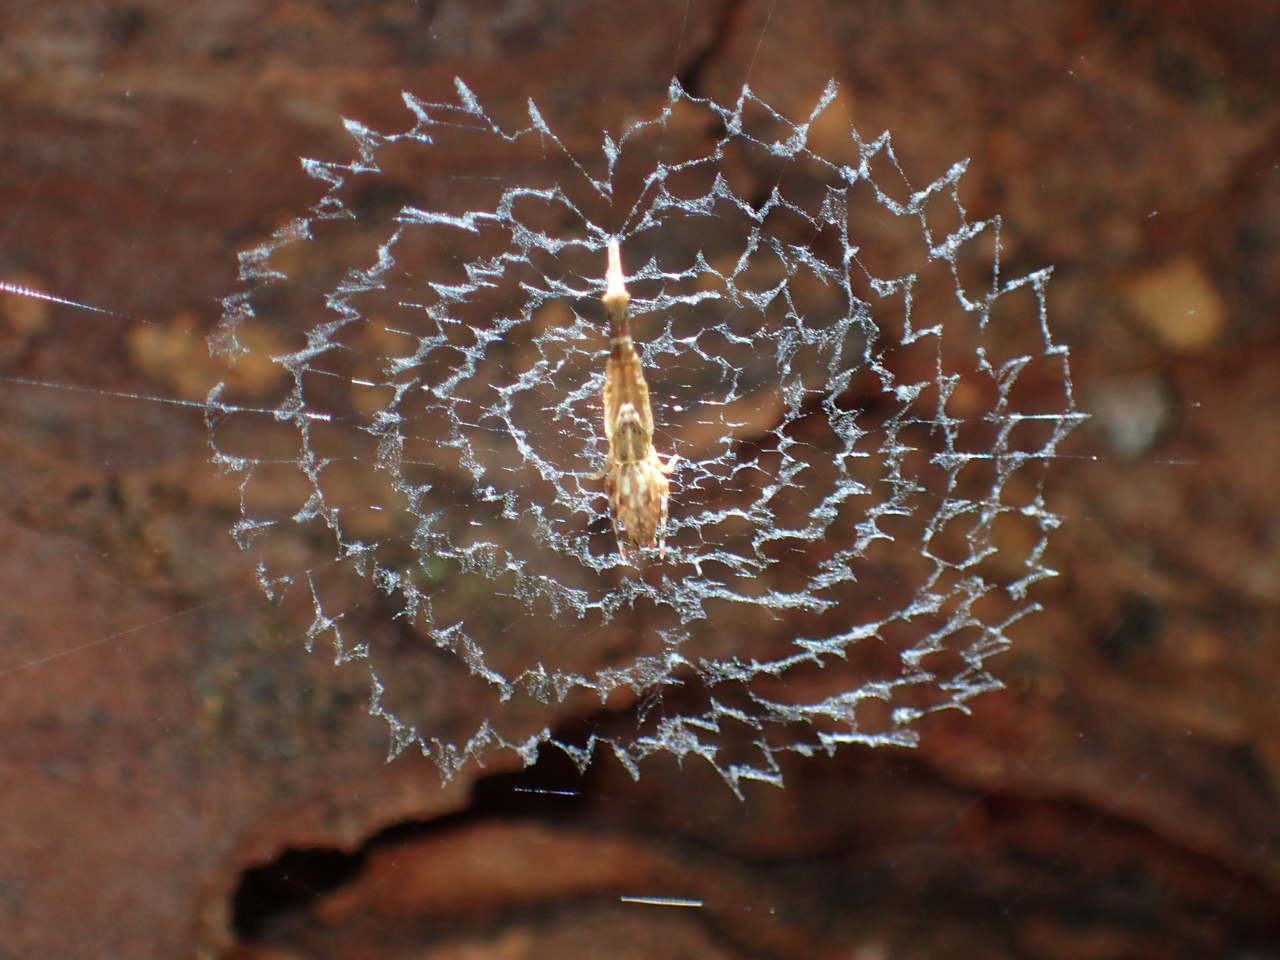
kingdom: Animalia
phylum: Arthropoda
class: Arachnida
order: Araneae
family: Uloboridae
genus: Uloborus
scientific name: Uloborus glomosus
